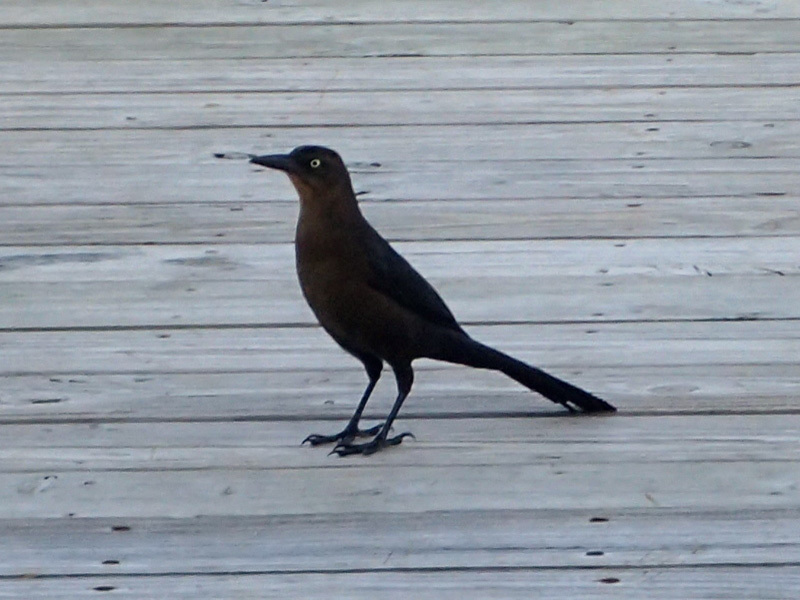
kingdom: Animalia
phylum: Chordata
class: Aves
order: Passeriformes
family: Icteridae
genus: Quiscalus
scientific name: Quiscalus mexicanus
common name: Great-tailed grackle
